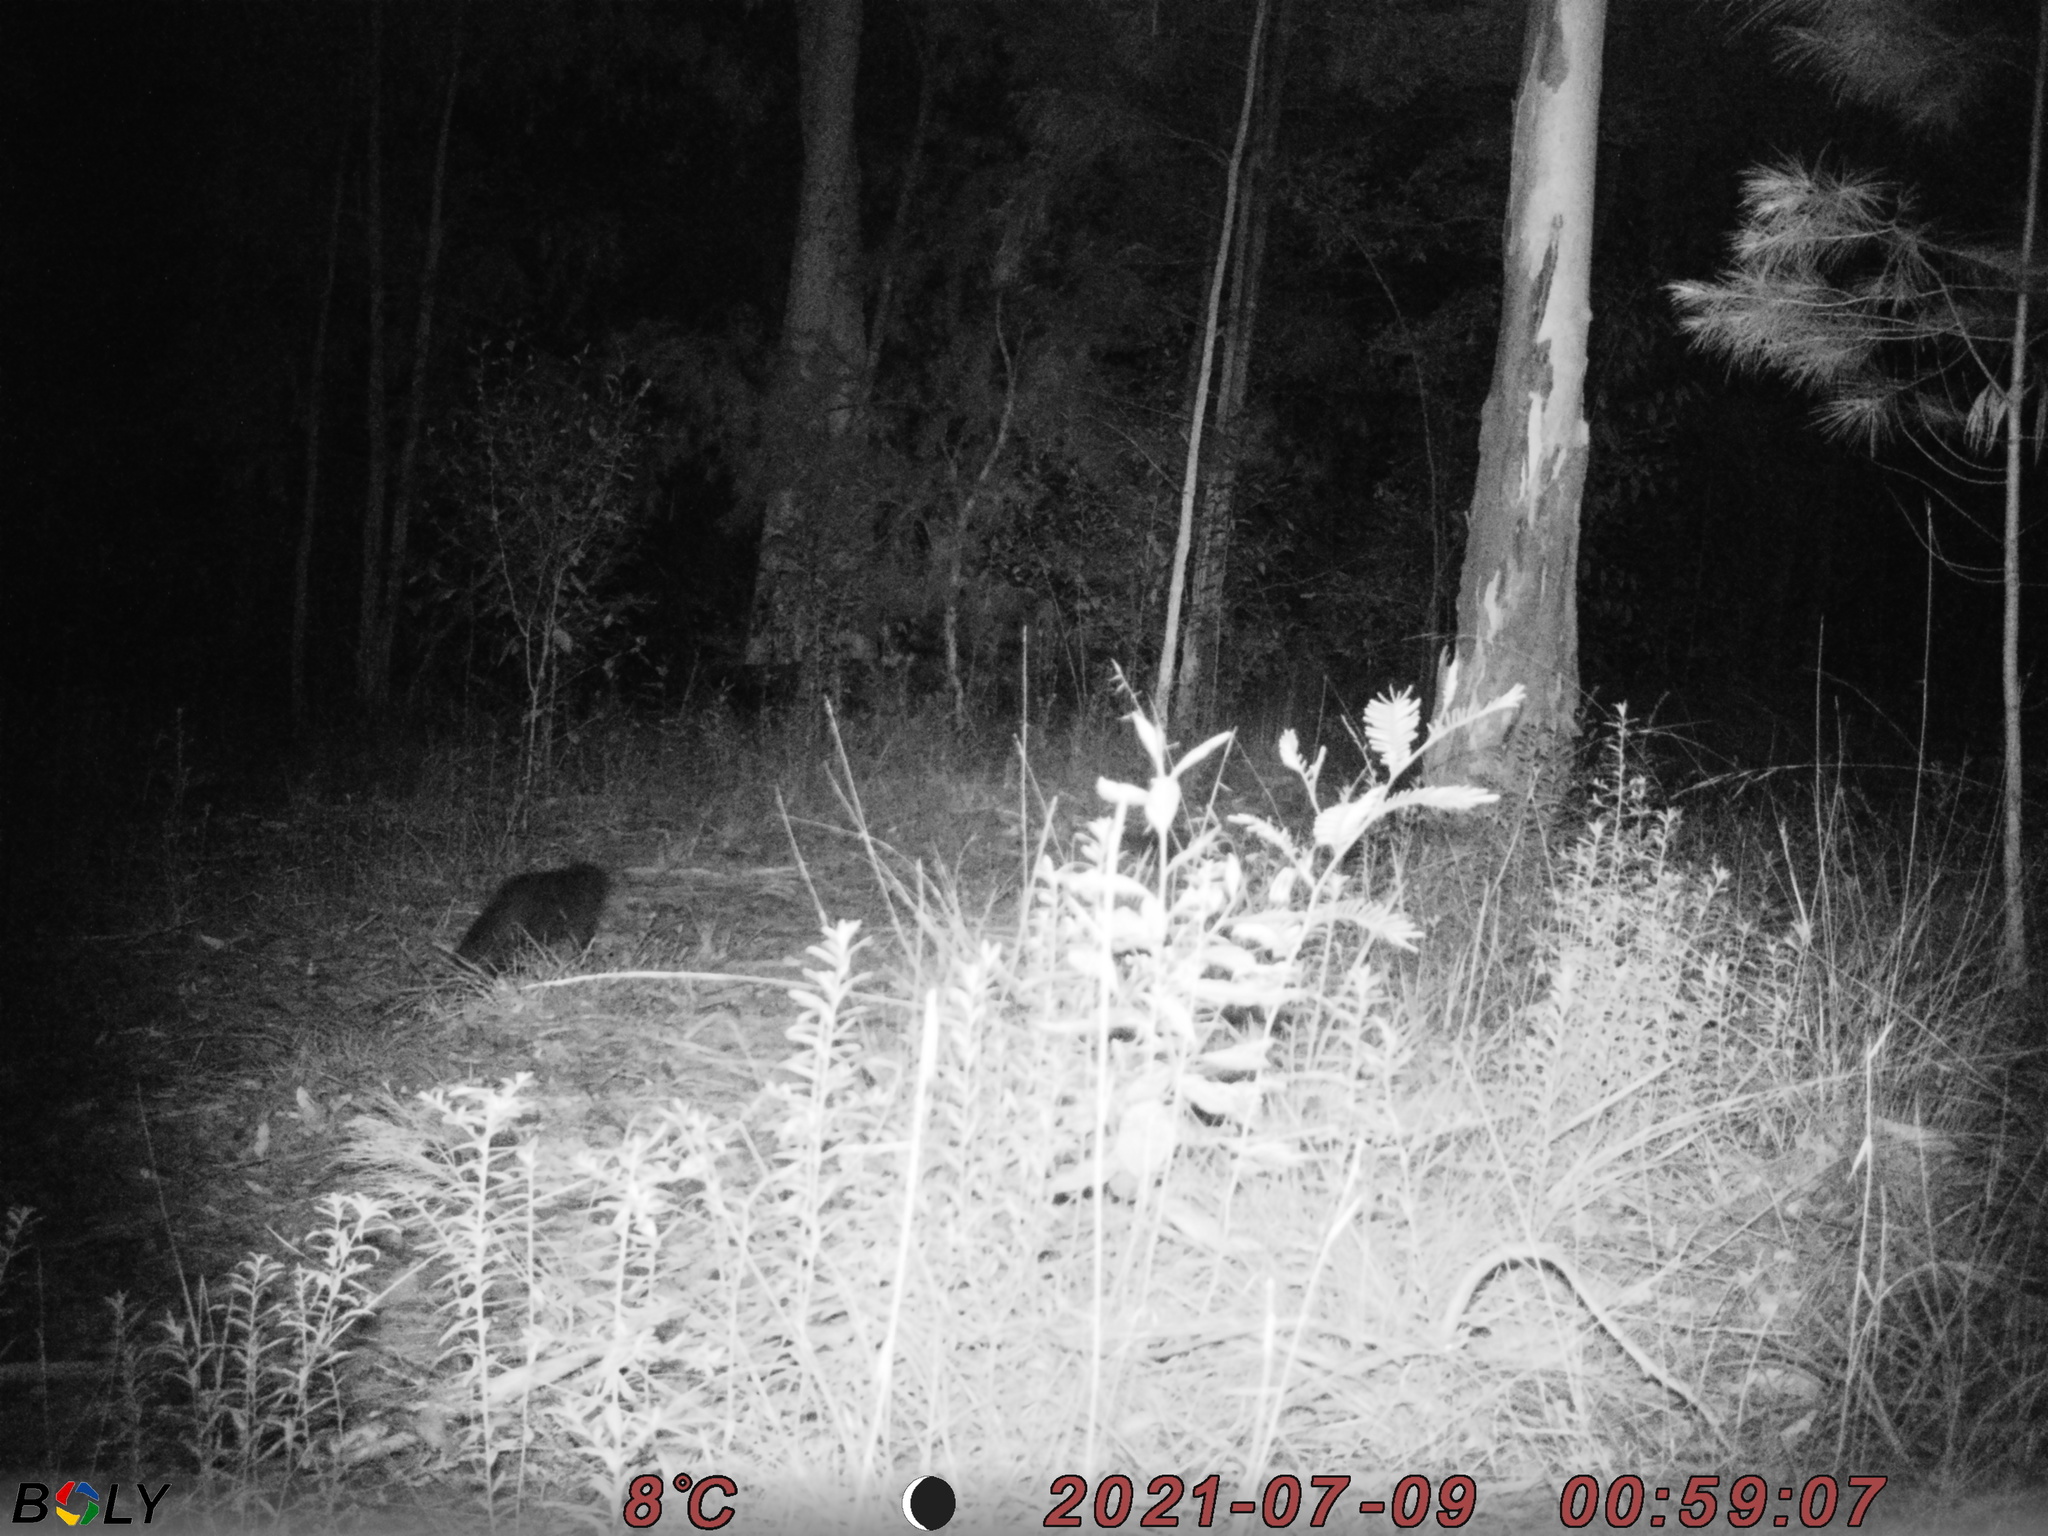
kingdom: Animalia
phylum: Chordata
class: Mammalia
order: Carnivora
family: Felidae
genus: Felis
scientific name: Felis catus
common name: Domestic cat
